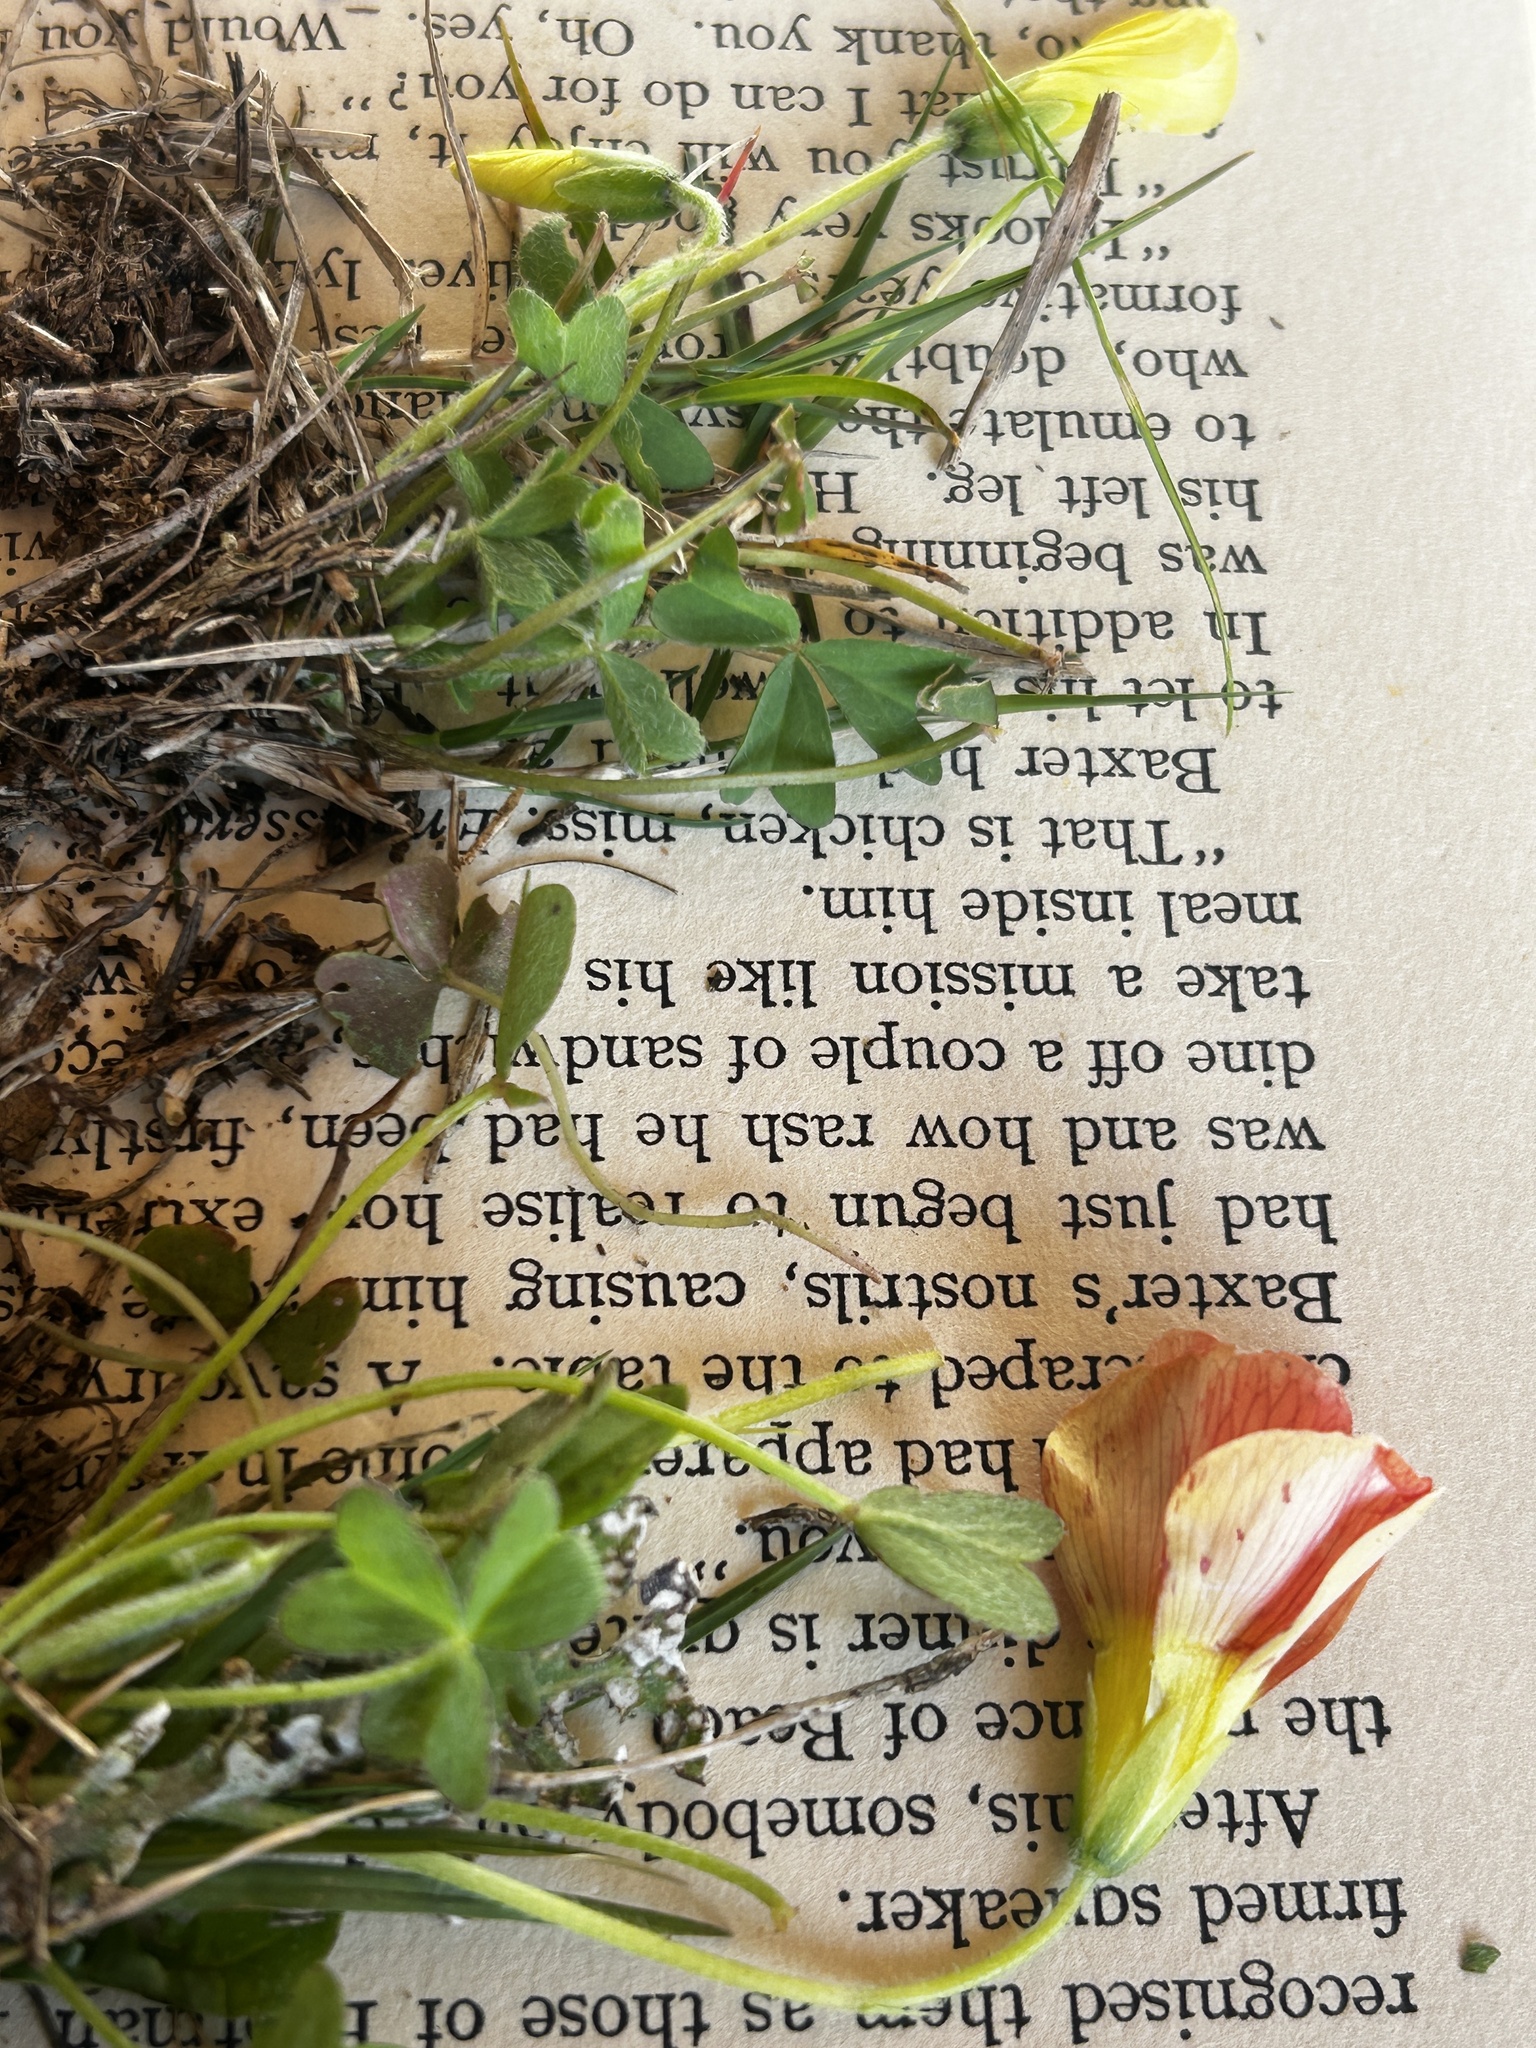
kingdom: Plantae
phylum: Tracheophyta
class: Magnoliopsida
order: Oxalidales
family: Oxalidaceae
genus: Oxalis
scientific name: Oxalis obtusa
